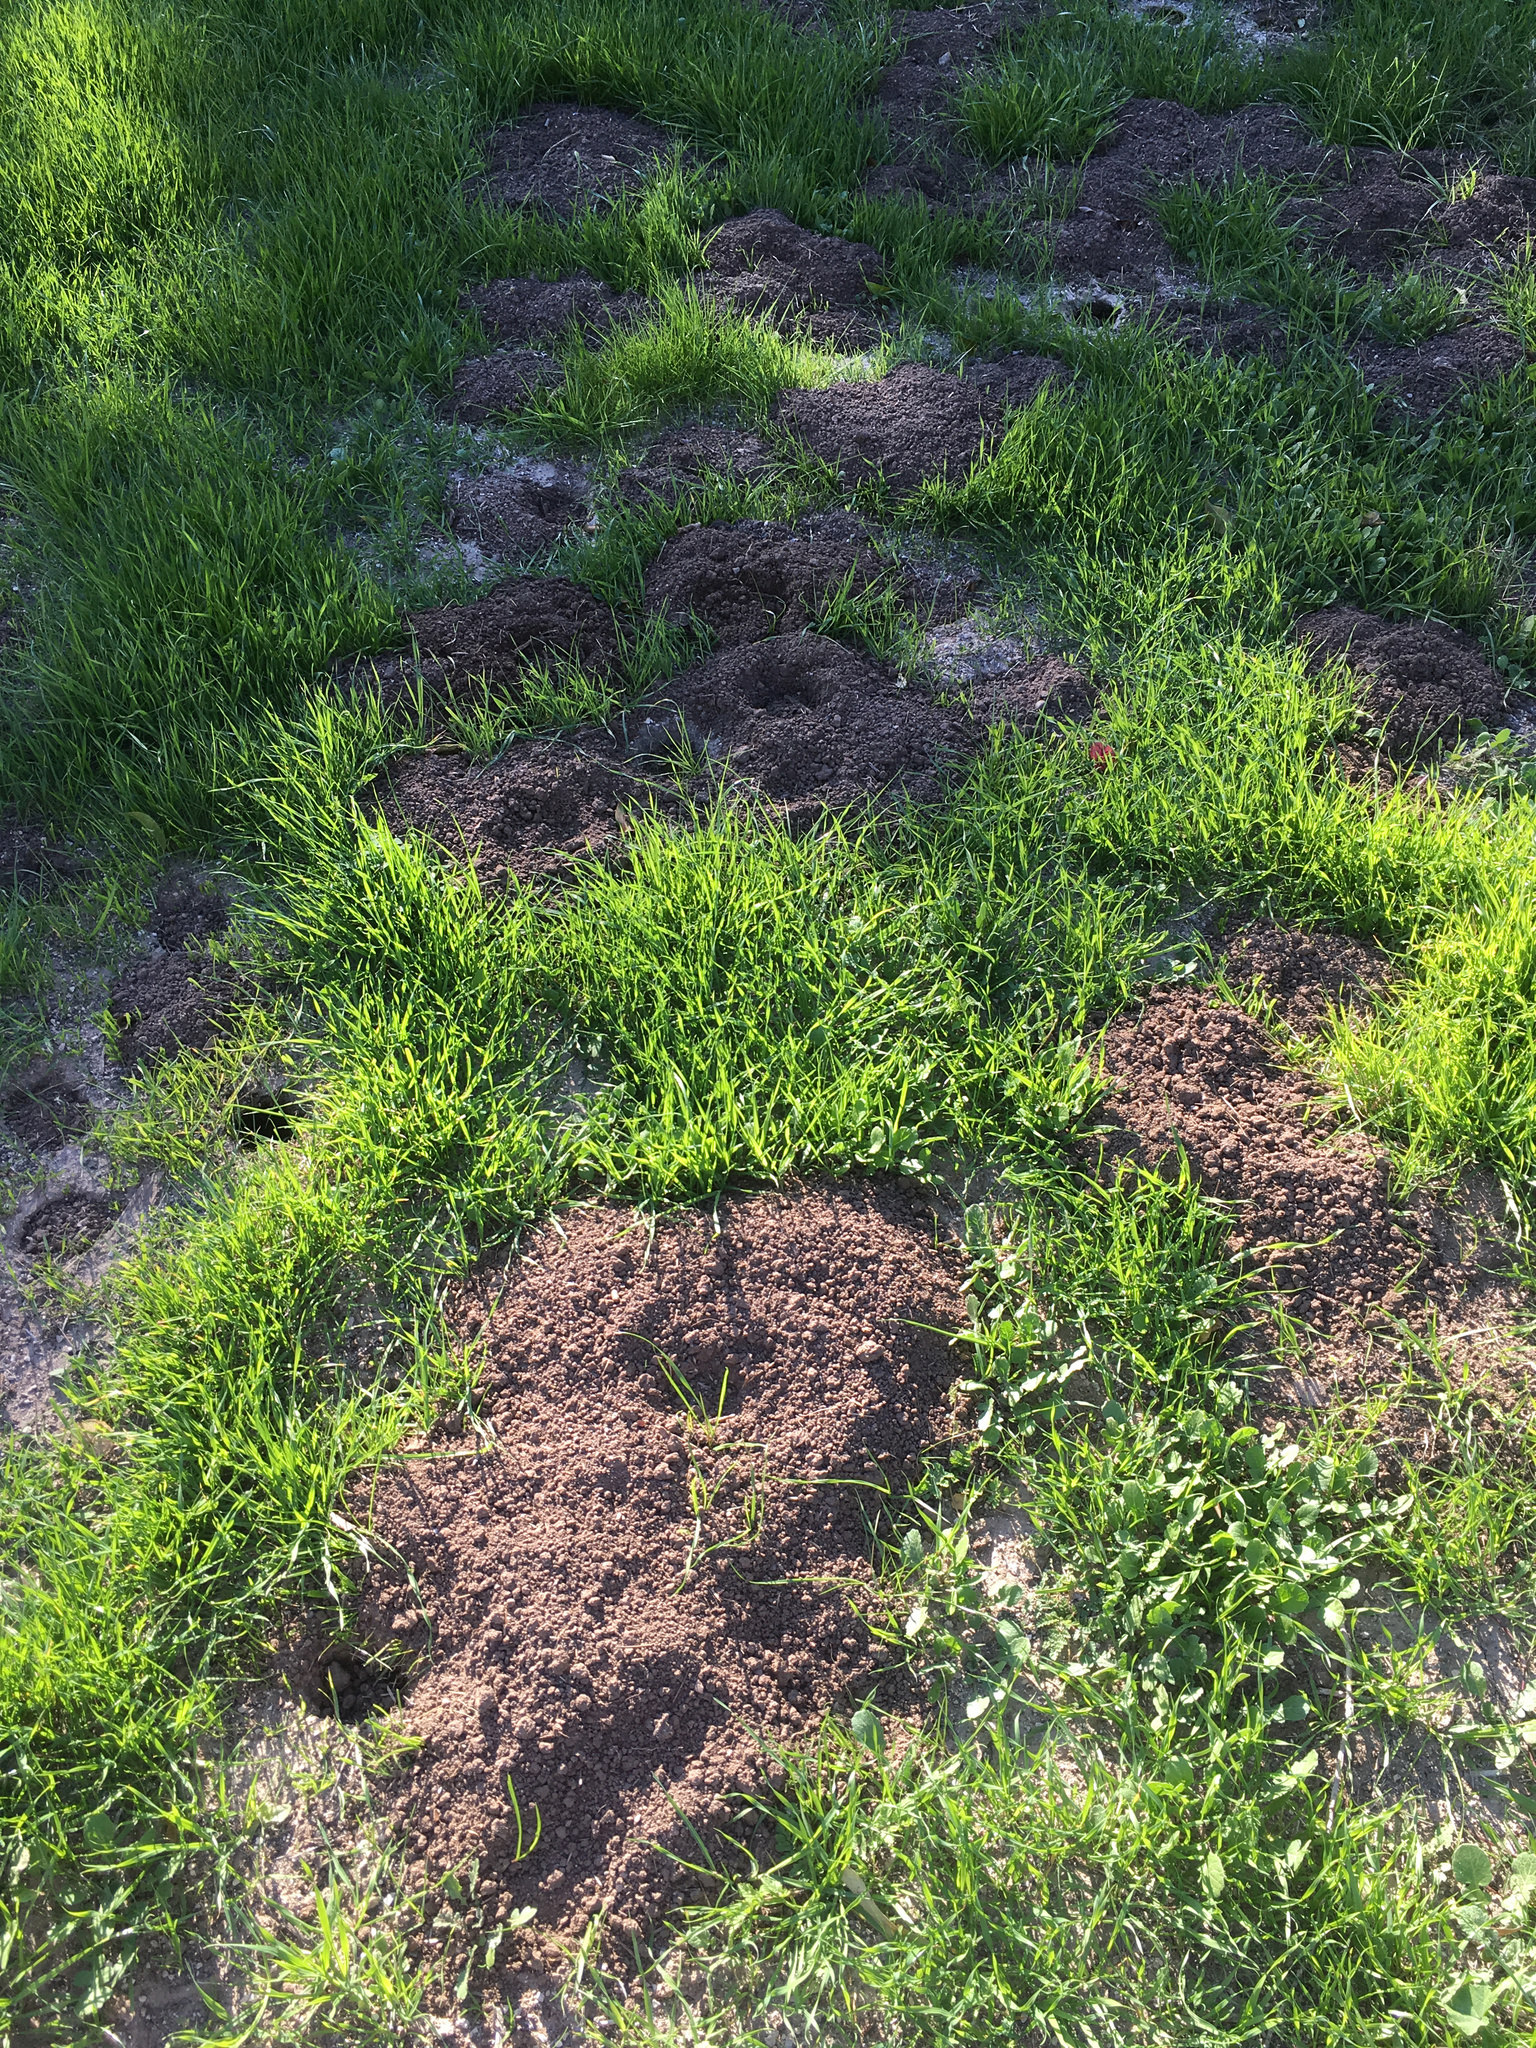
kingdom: Animalia
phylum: Chordata
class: Mammalia
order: Rodentia
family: Geomyidae
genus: Thomomys
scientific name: Thomomys
